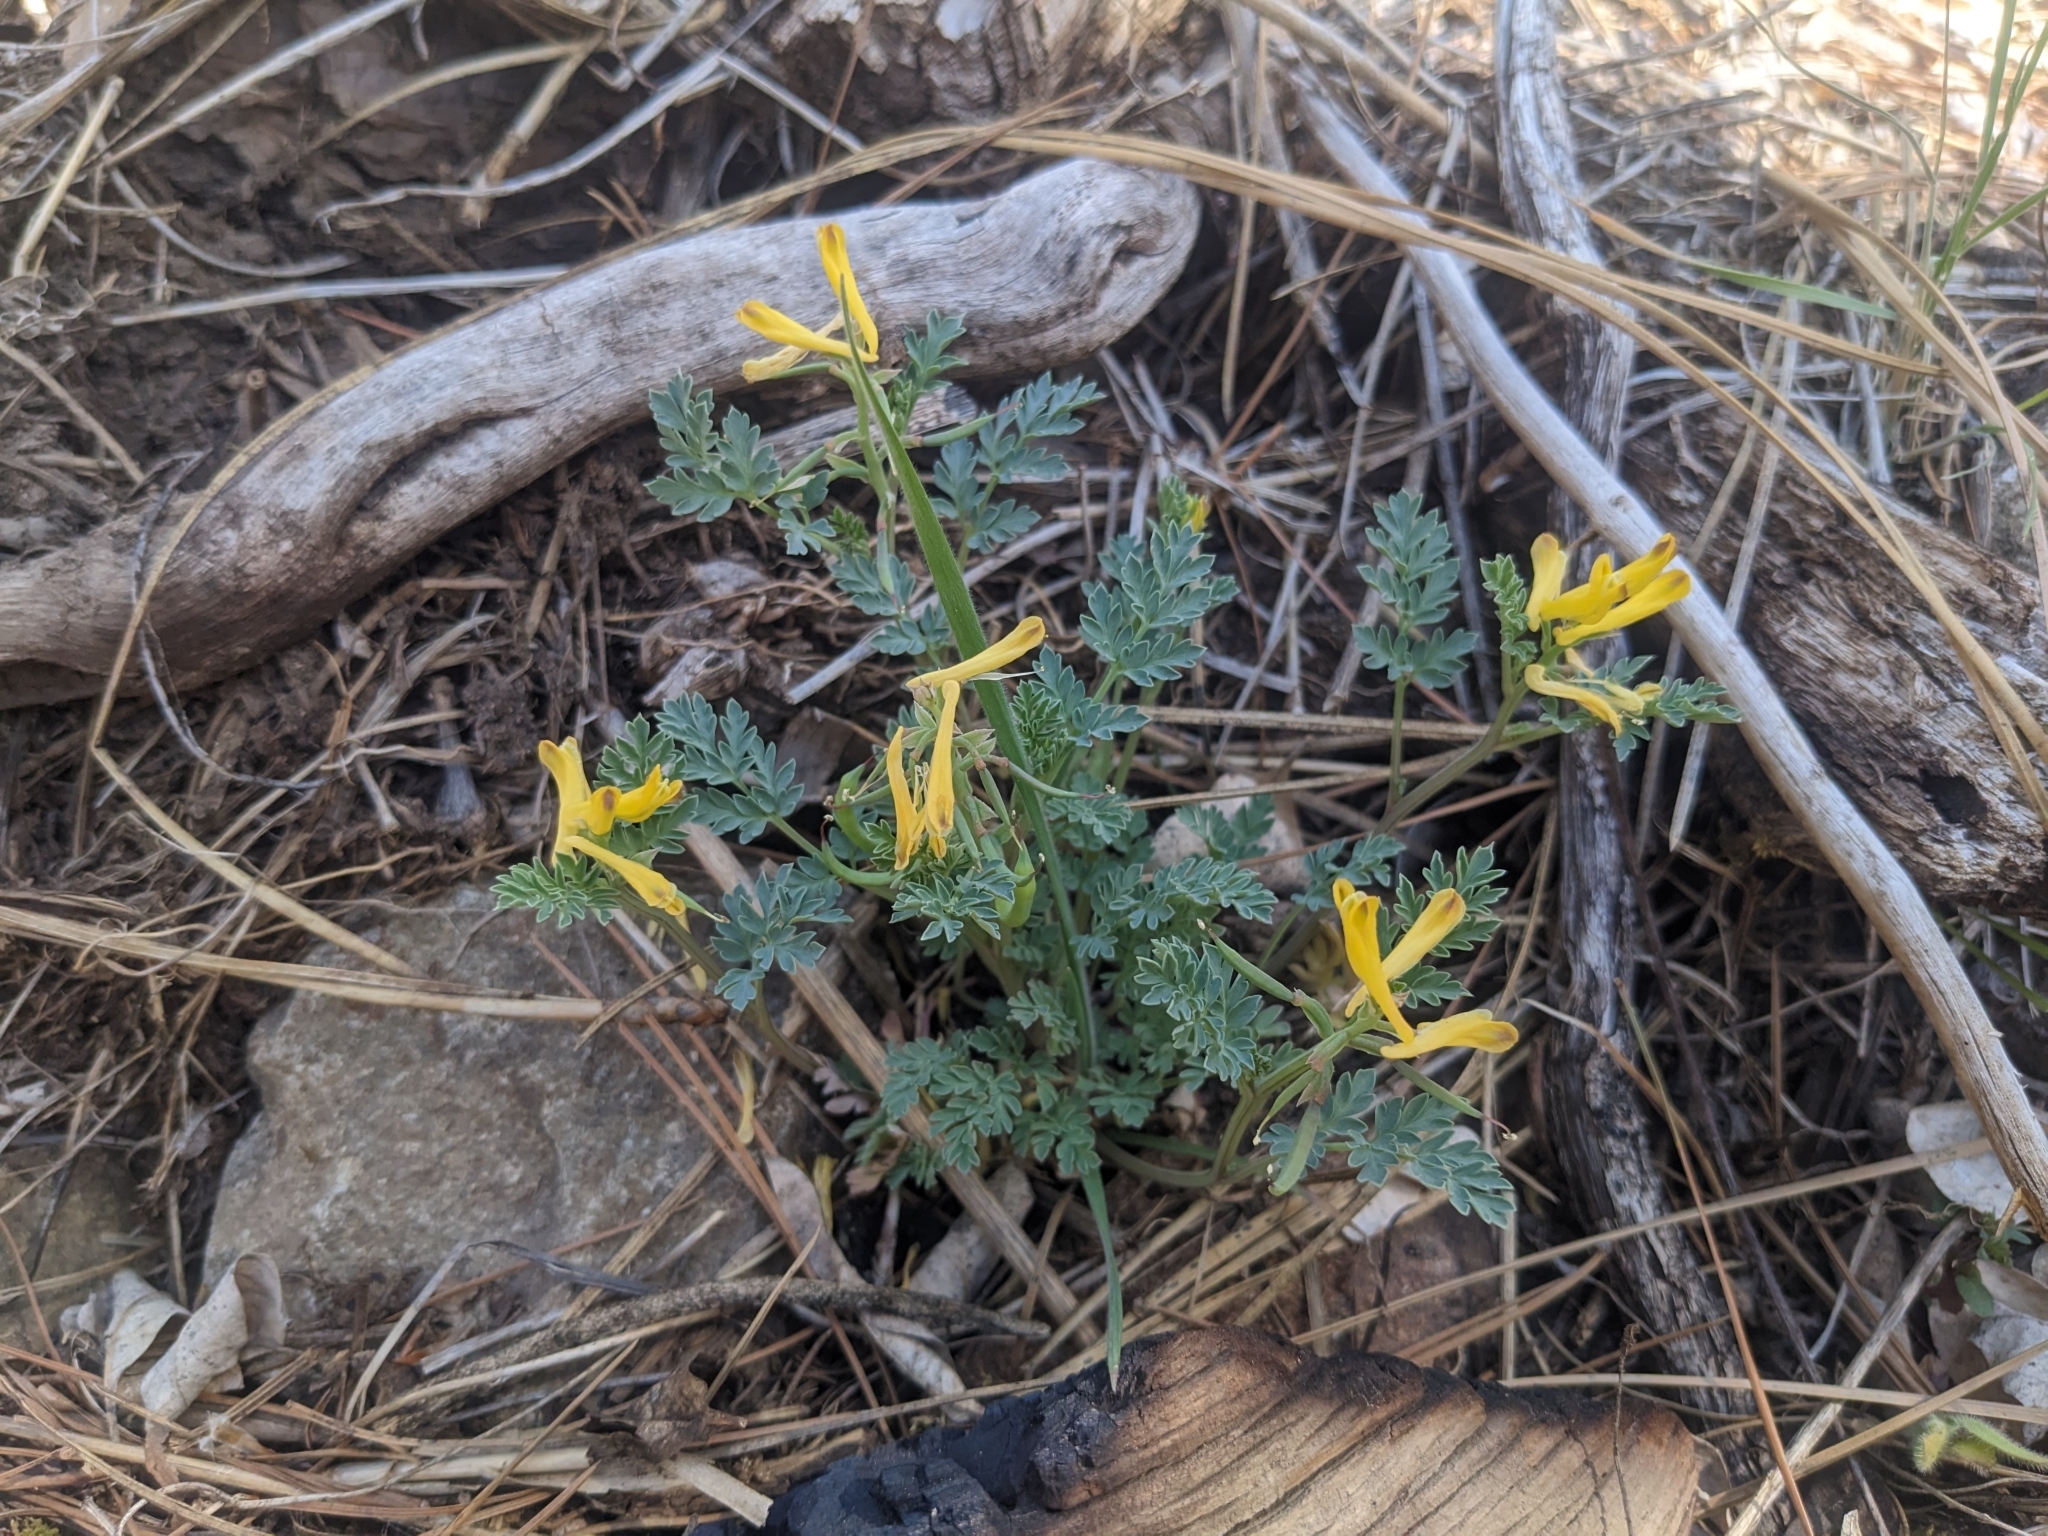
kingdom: Plantae
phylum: Tracheophyta
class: Magnoliopsida
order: Ranunculales
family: Papaveraceae
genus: Corydalis
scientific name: Corydalis aurea
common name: Golden corydalis
